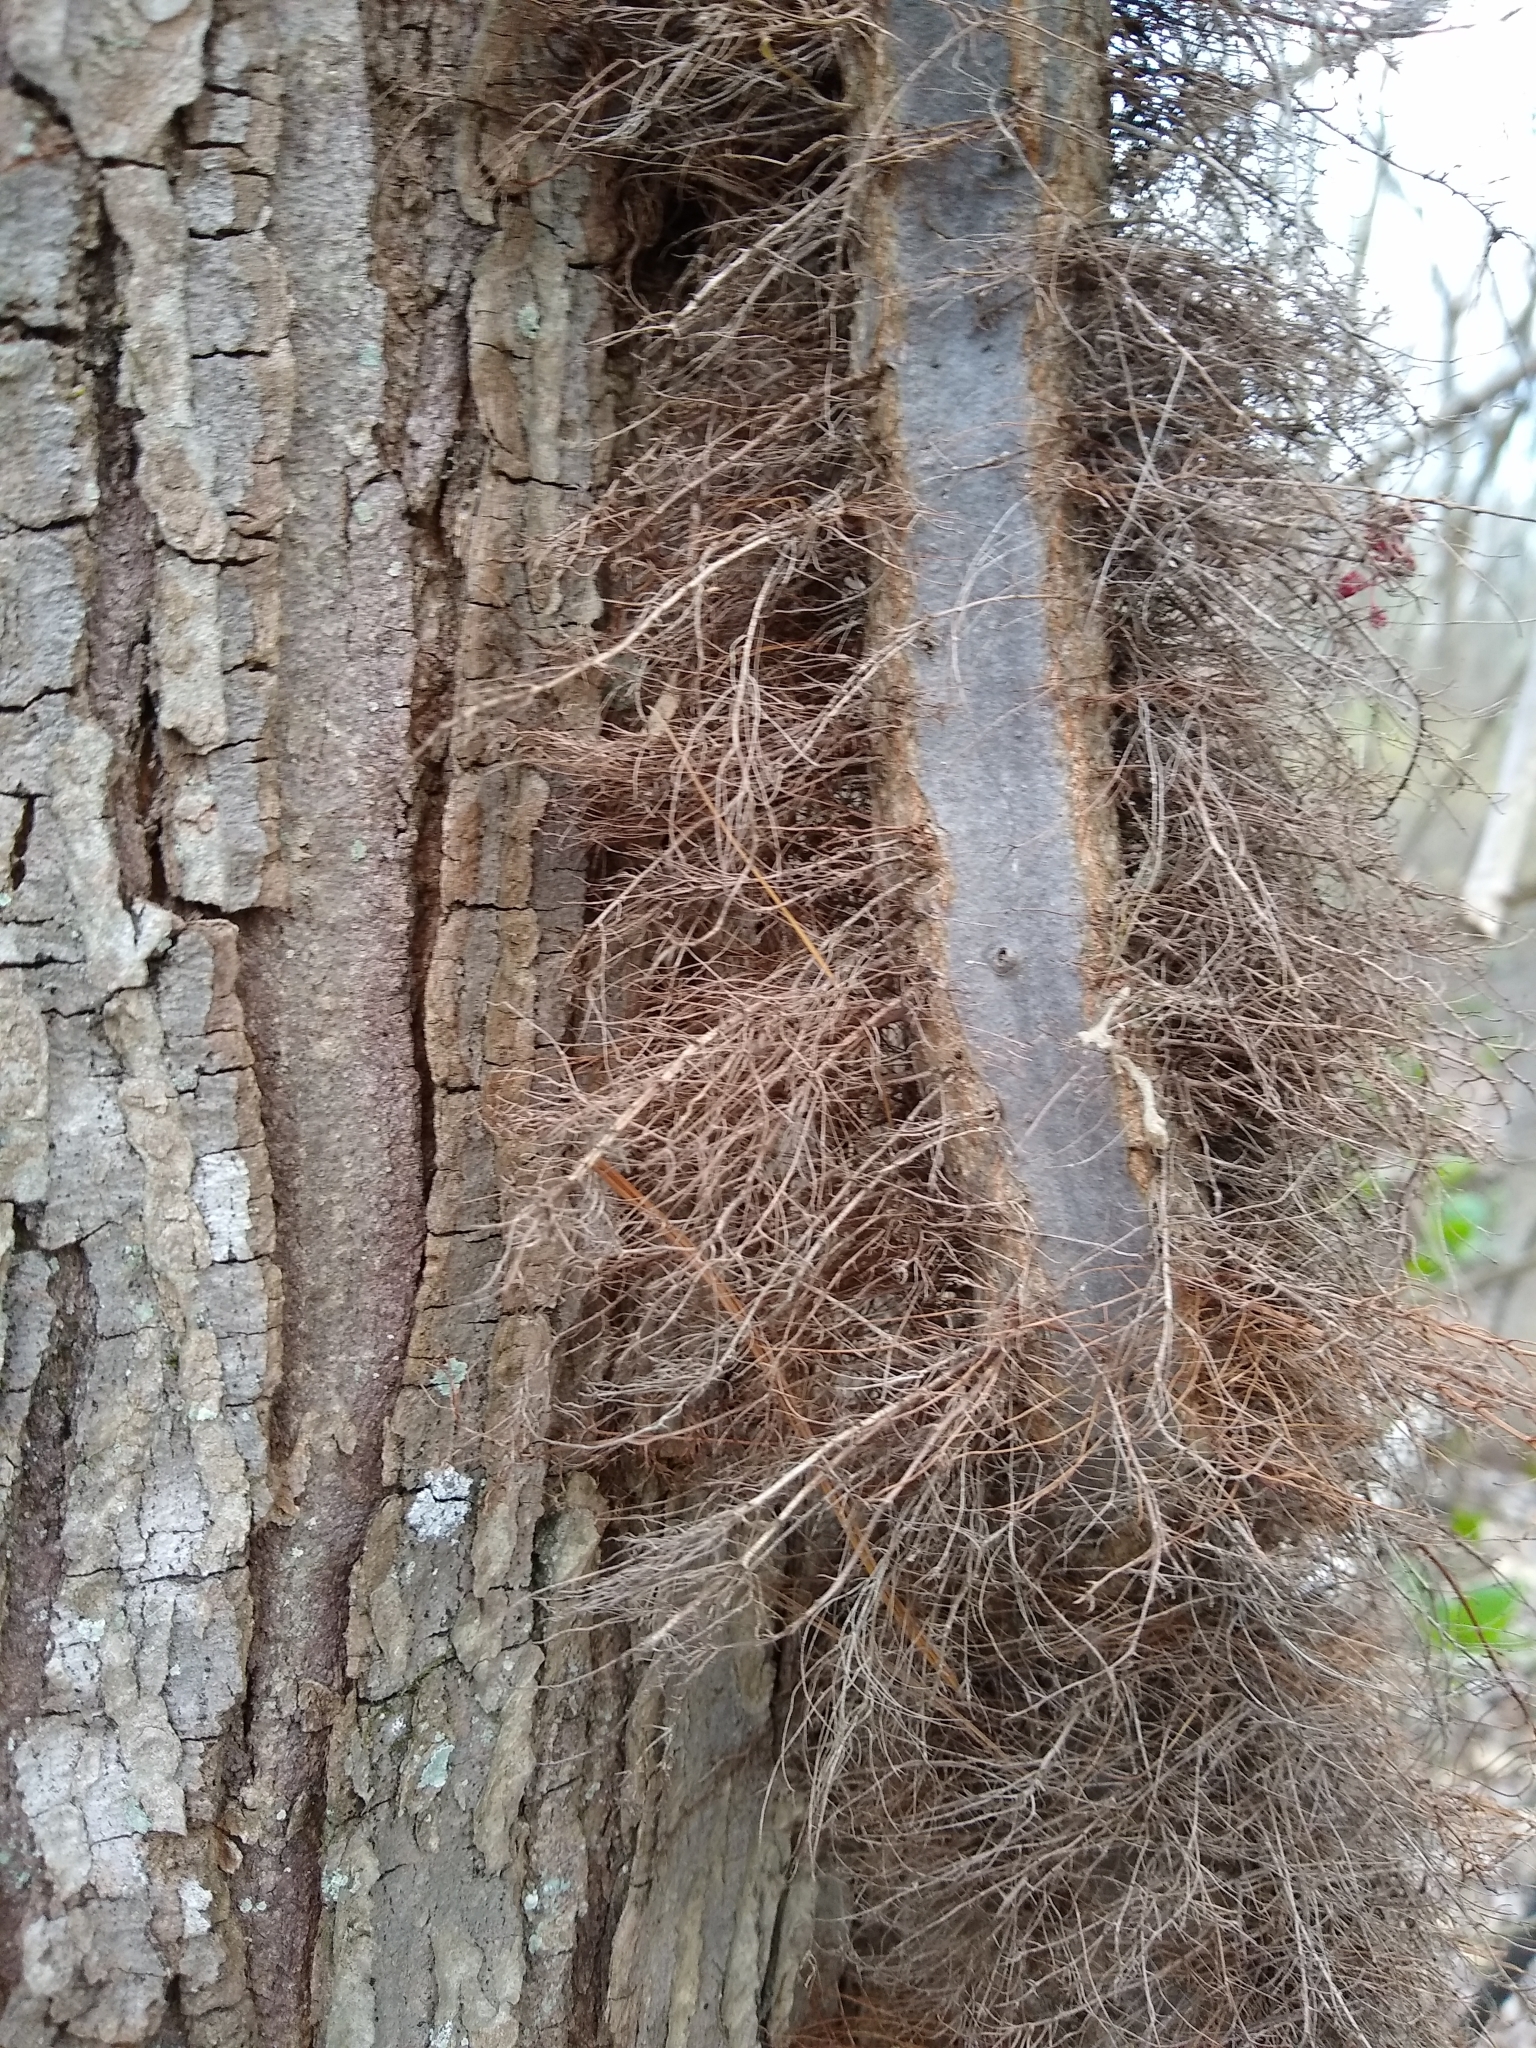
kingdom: Plantae
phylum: Tracheophyta
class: Magnoliopsida
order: Sapindales
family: Anacardiaceae
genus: Toxicodendron
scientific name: Toxicodendron radicans
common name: Poison ivy
